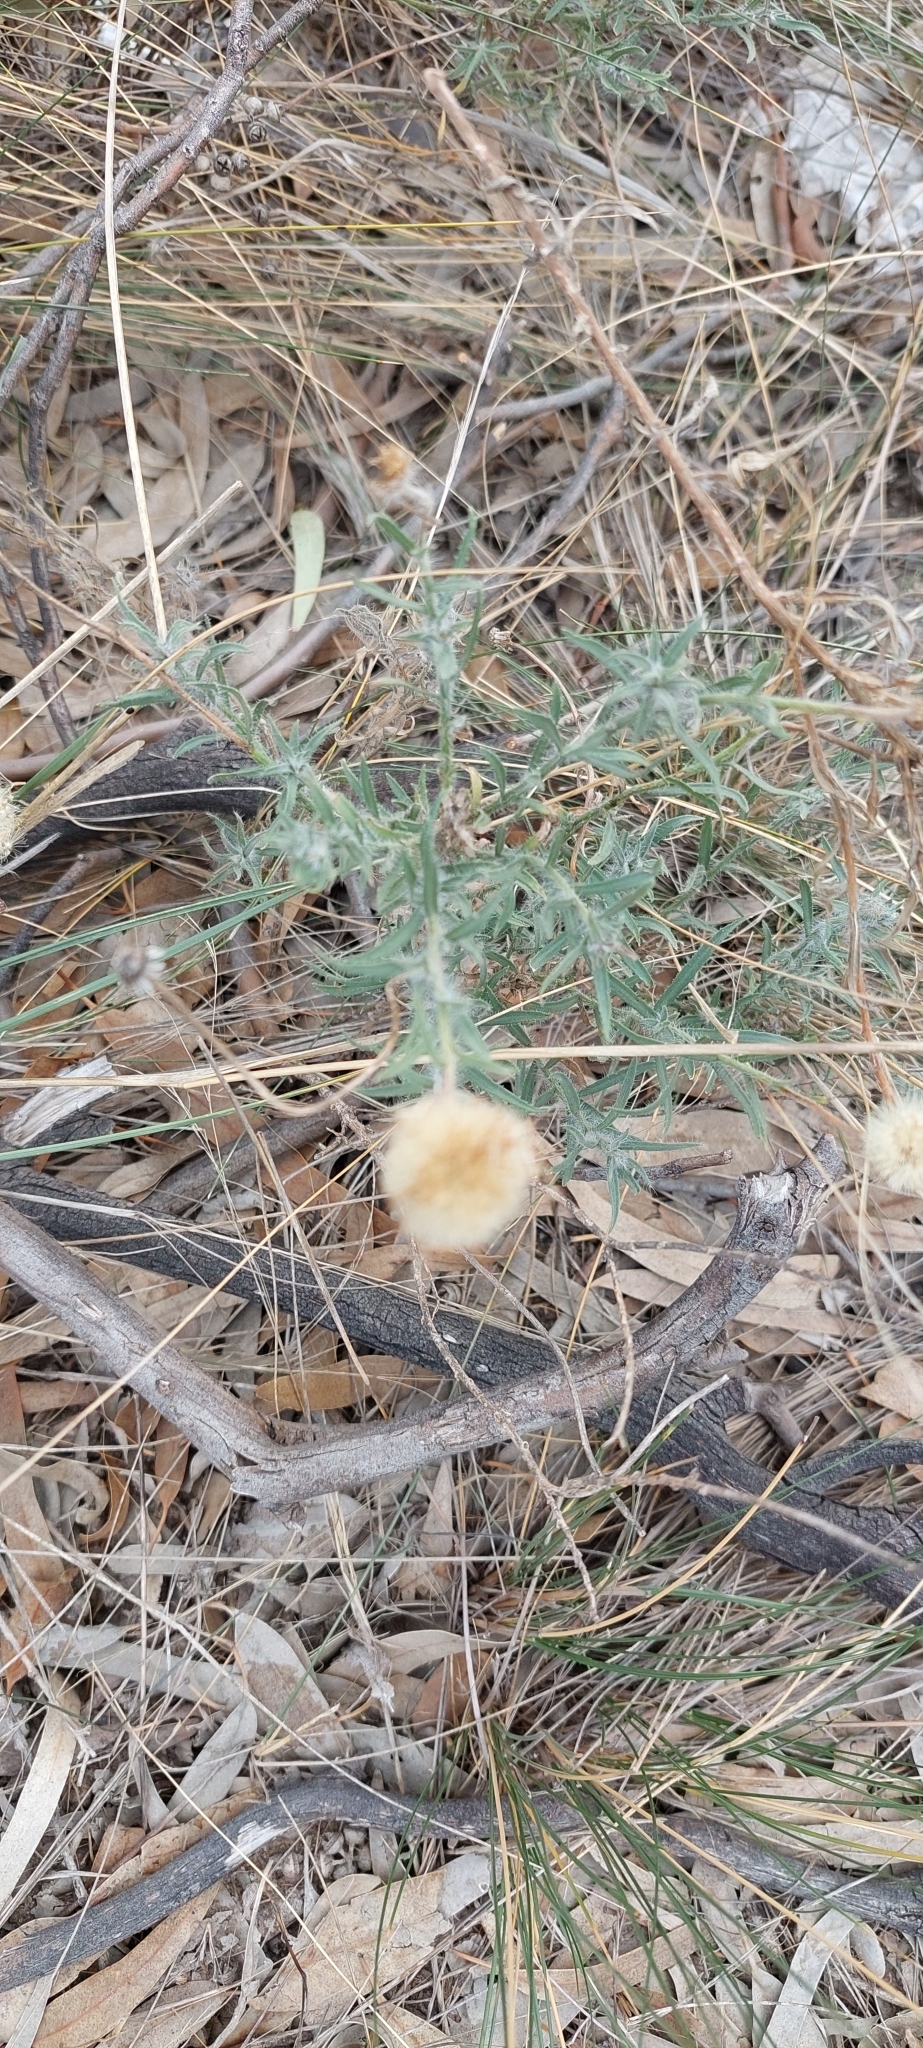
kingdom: Plantae
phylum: Tracheophyta
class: Magnoliopsida
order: Asterales
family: Asteraceae
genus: Hysterionica
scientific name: Hysterionica jasionoides
